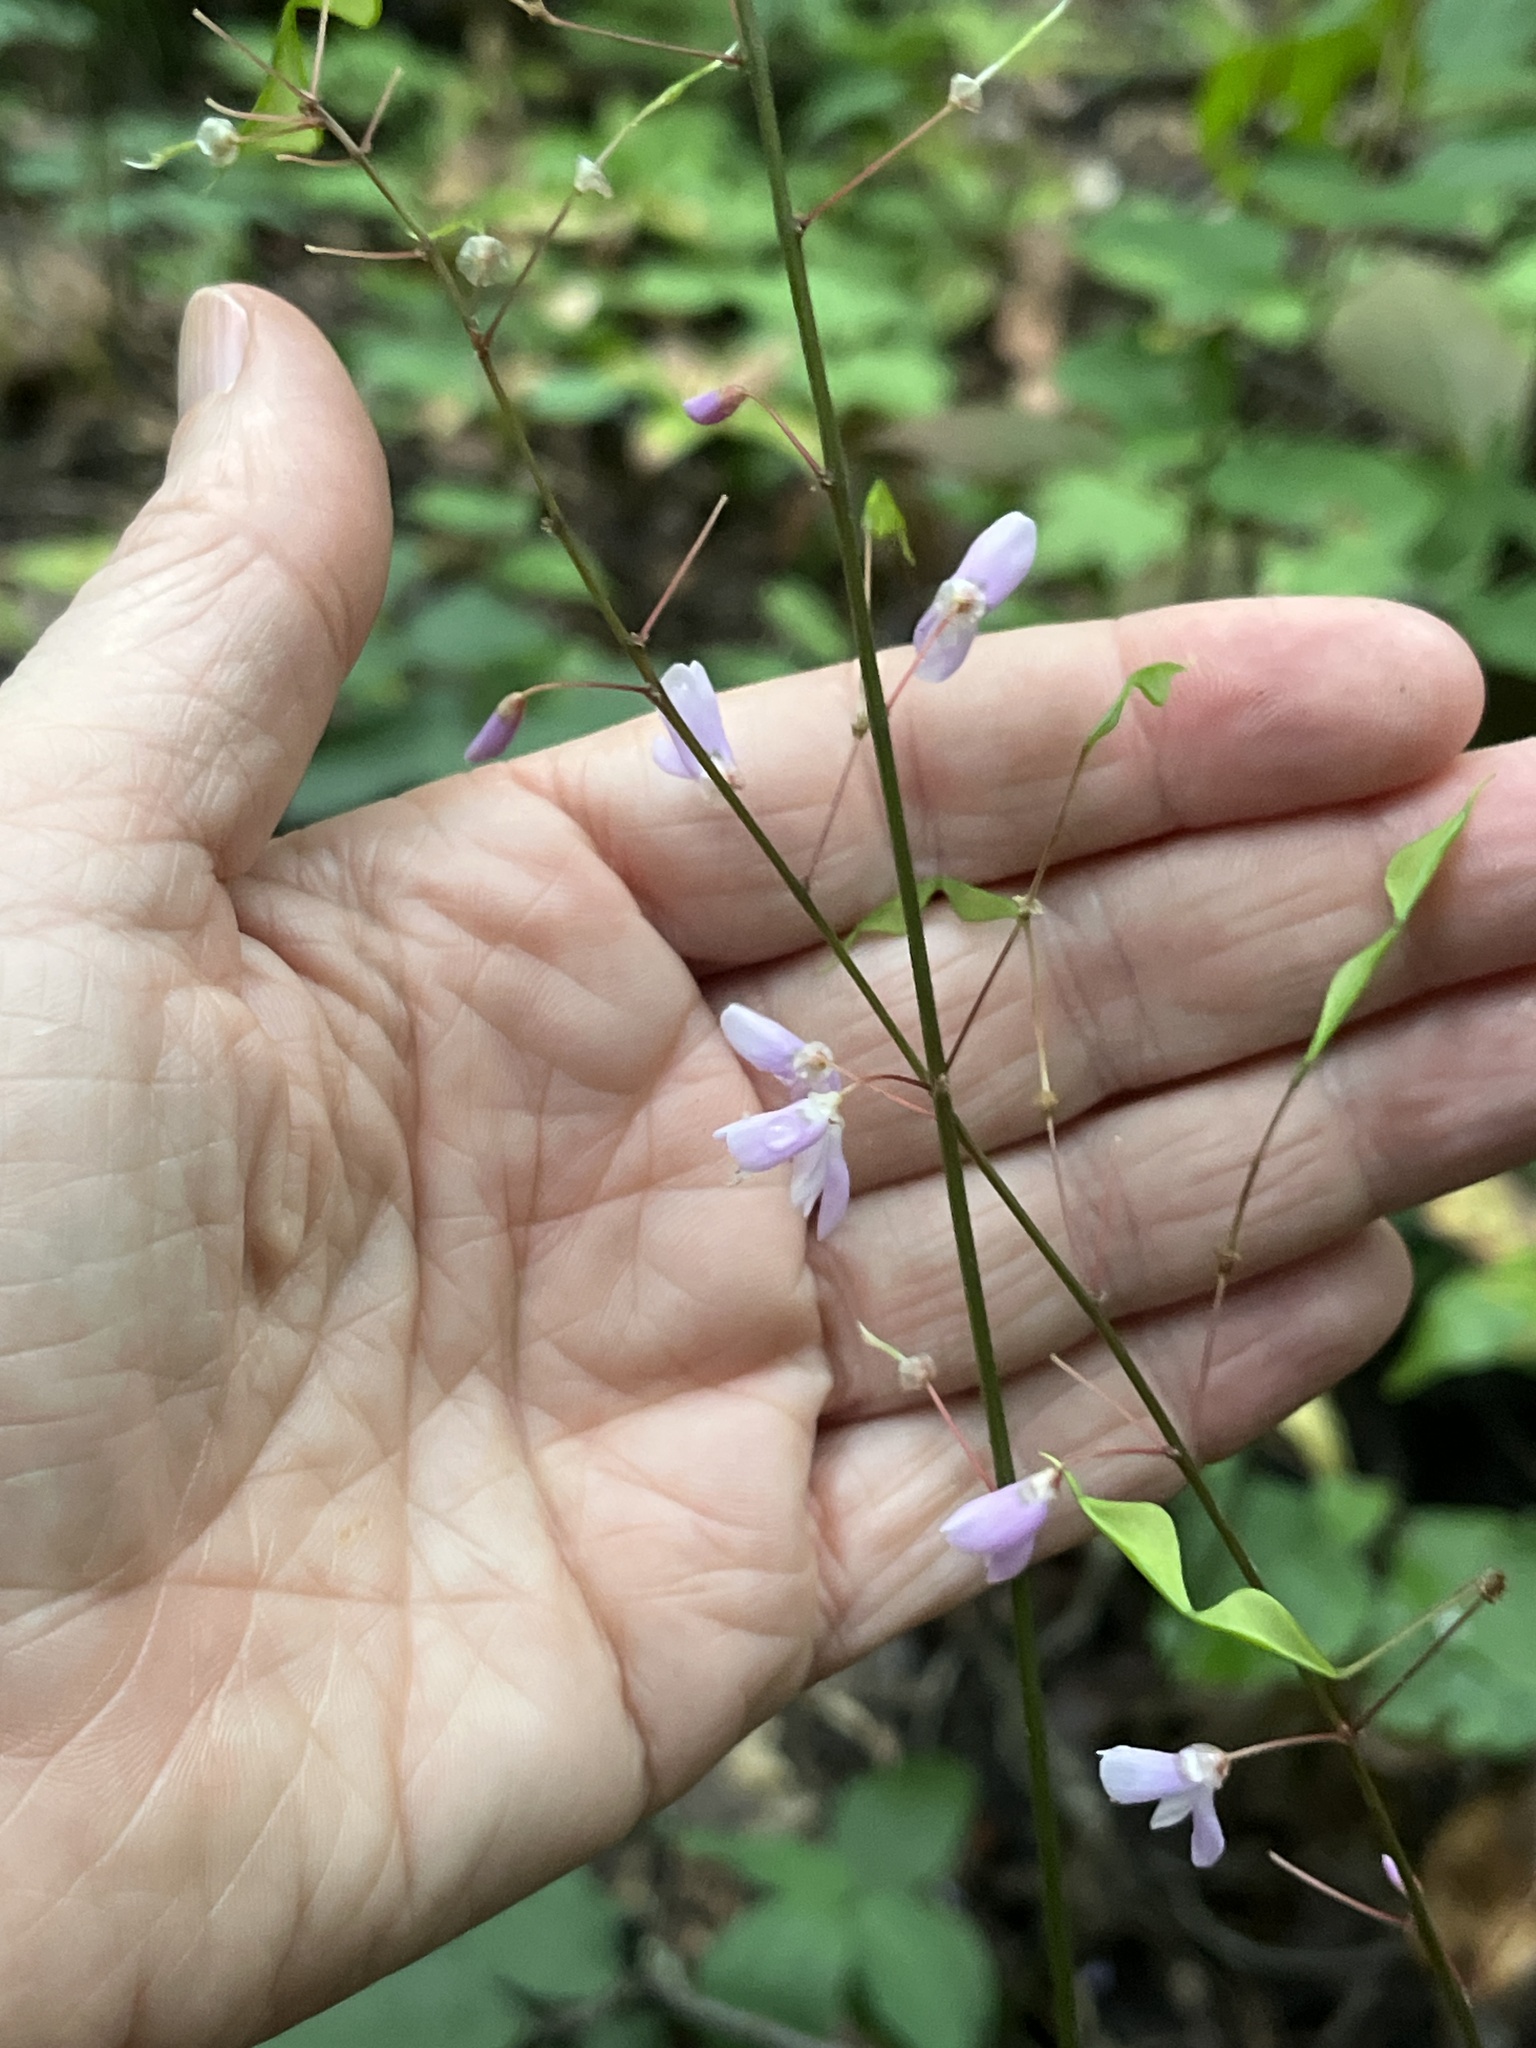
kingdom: Plantae
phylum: Tracheophyta
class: Magnoliopsida
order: Fabales
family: Fabaceae
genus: Hylodesmum
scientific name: Hylodesmum nudiflorum
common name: Bare-stemmed tick-trefoil
